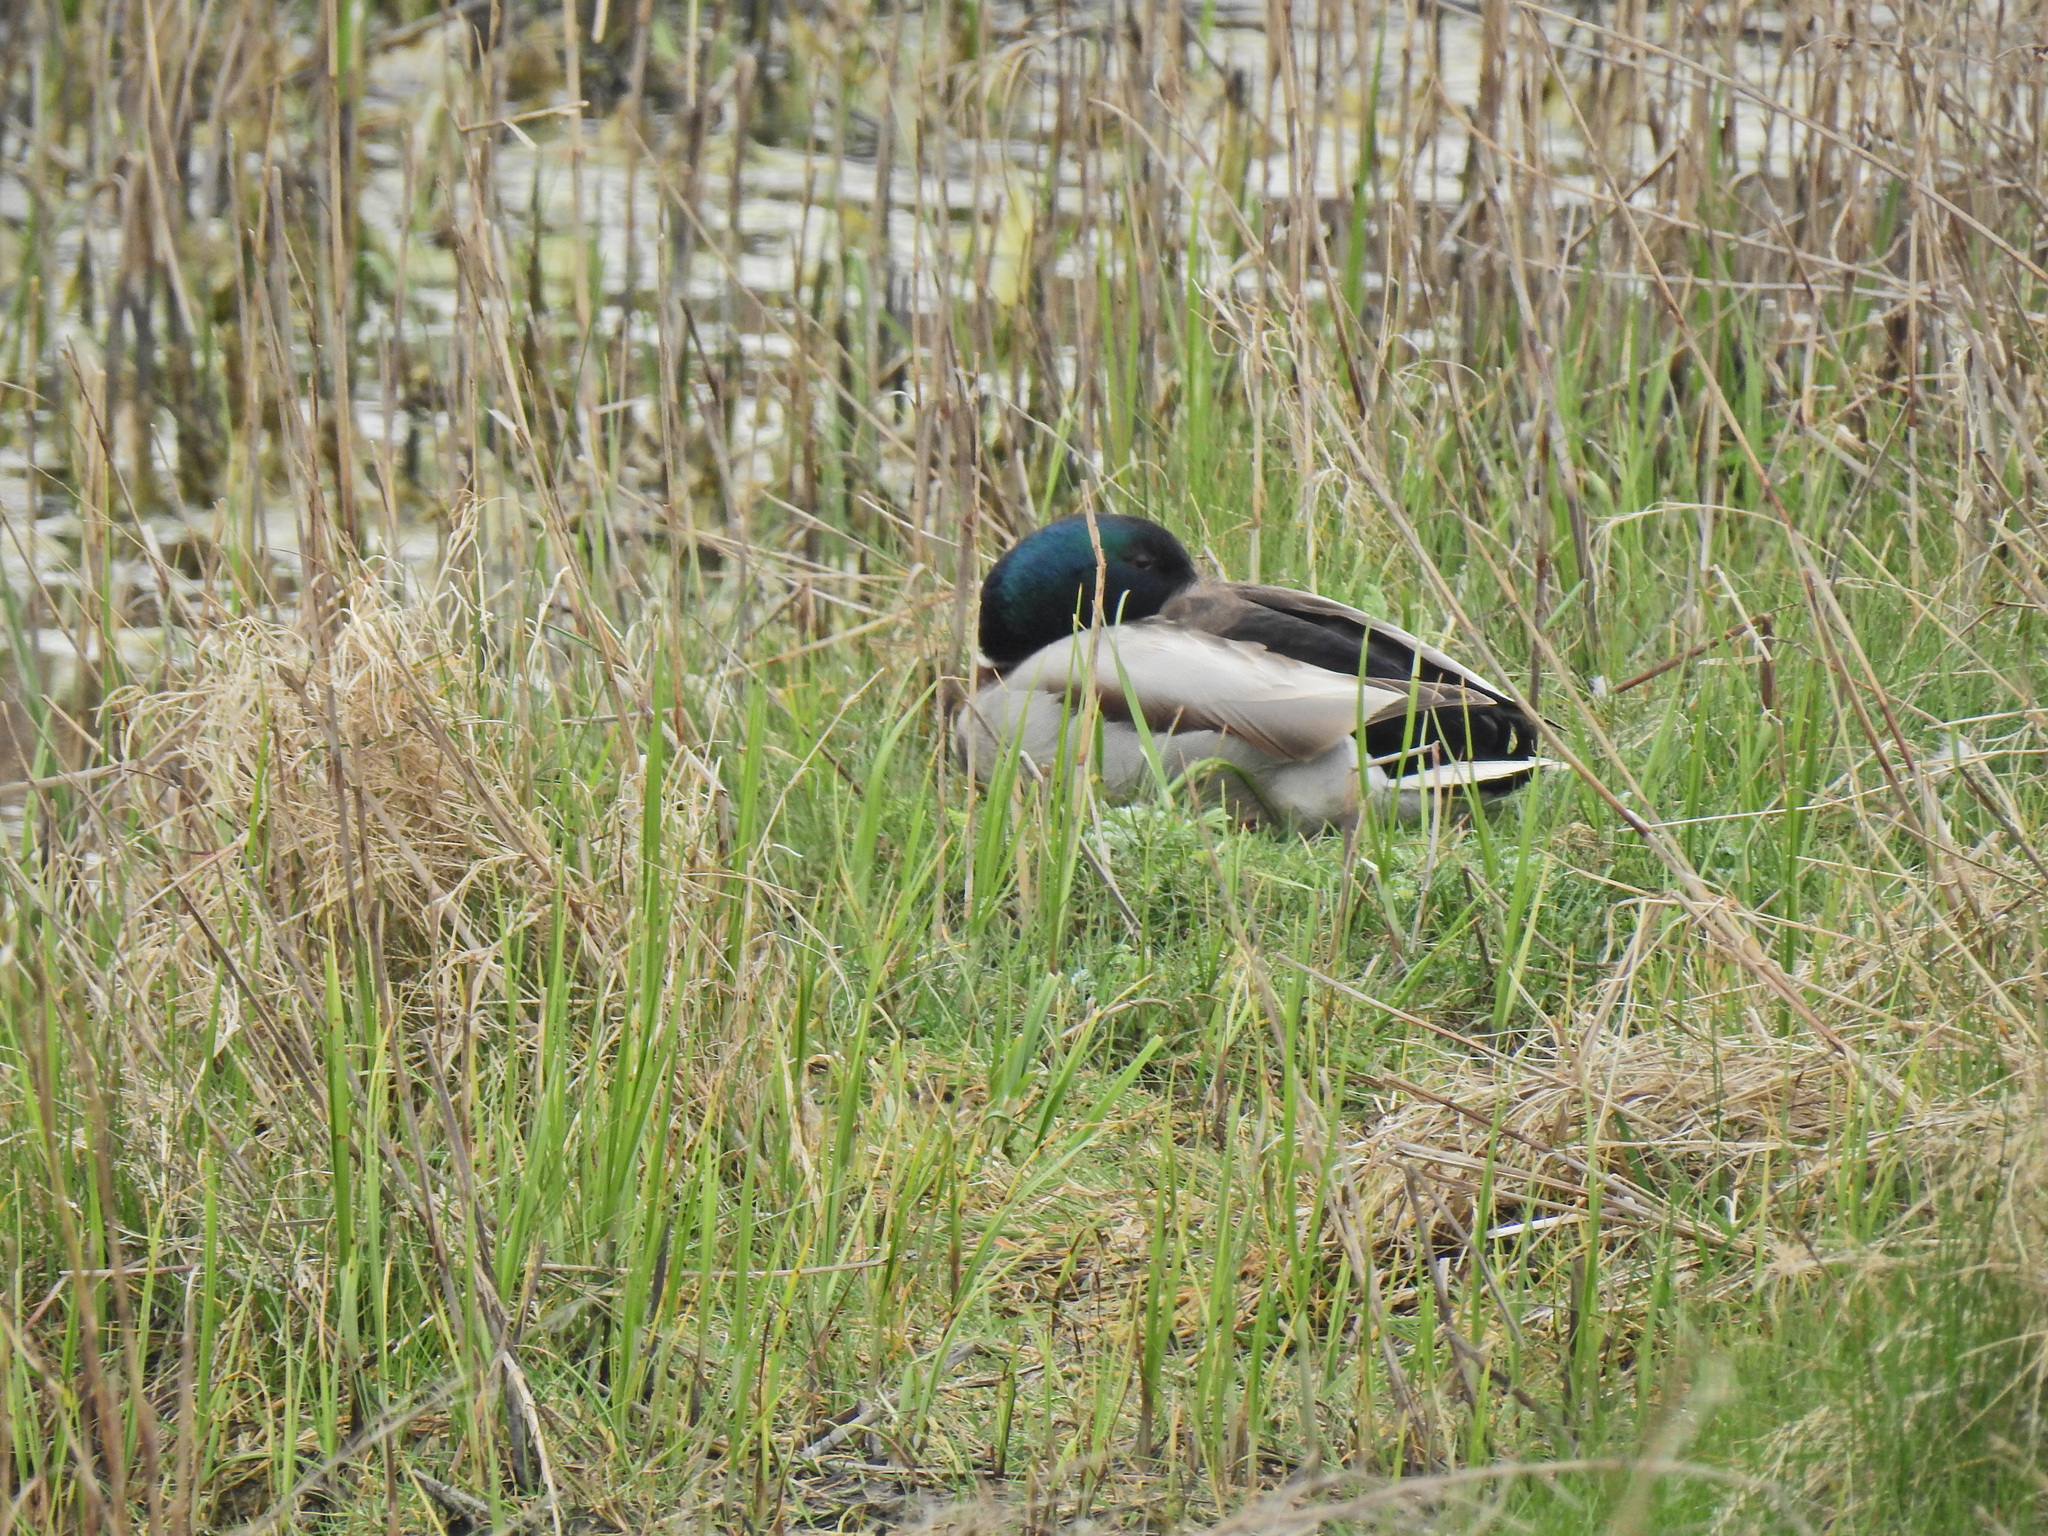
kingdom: Animalia
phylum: Chordata
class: Aves
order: Anseriformes
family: Anatidae
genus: Anas
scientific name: Anas platyrhynchos
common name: Mallard
